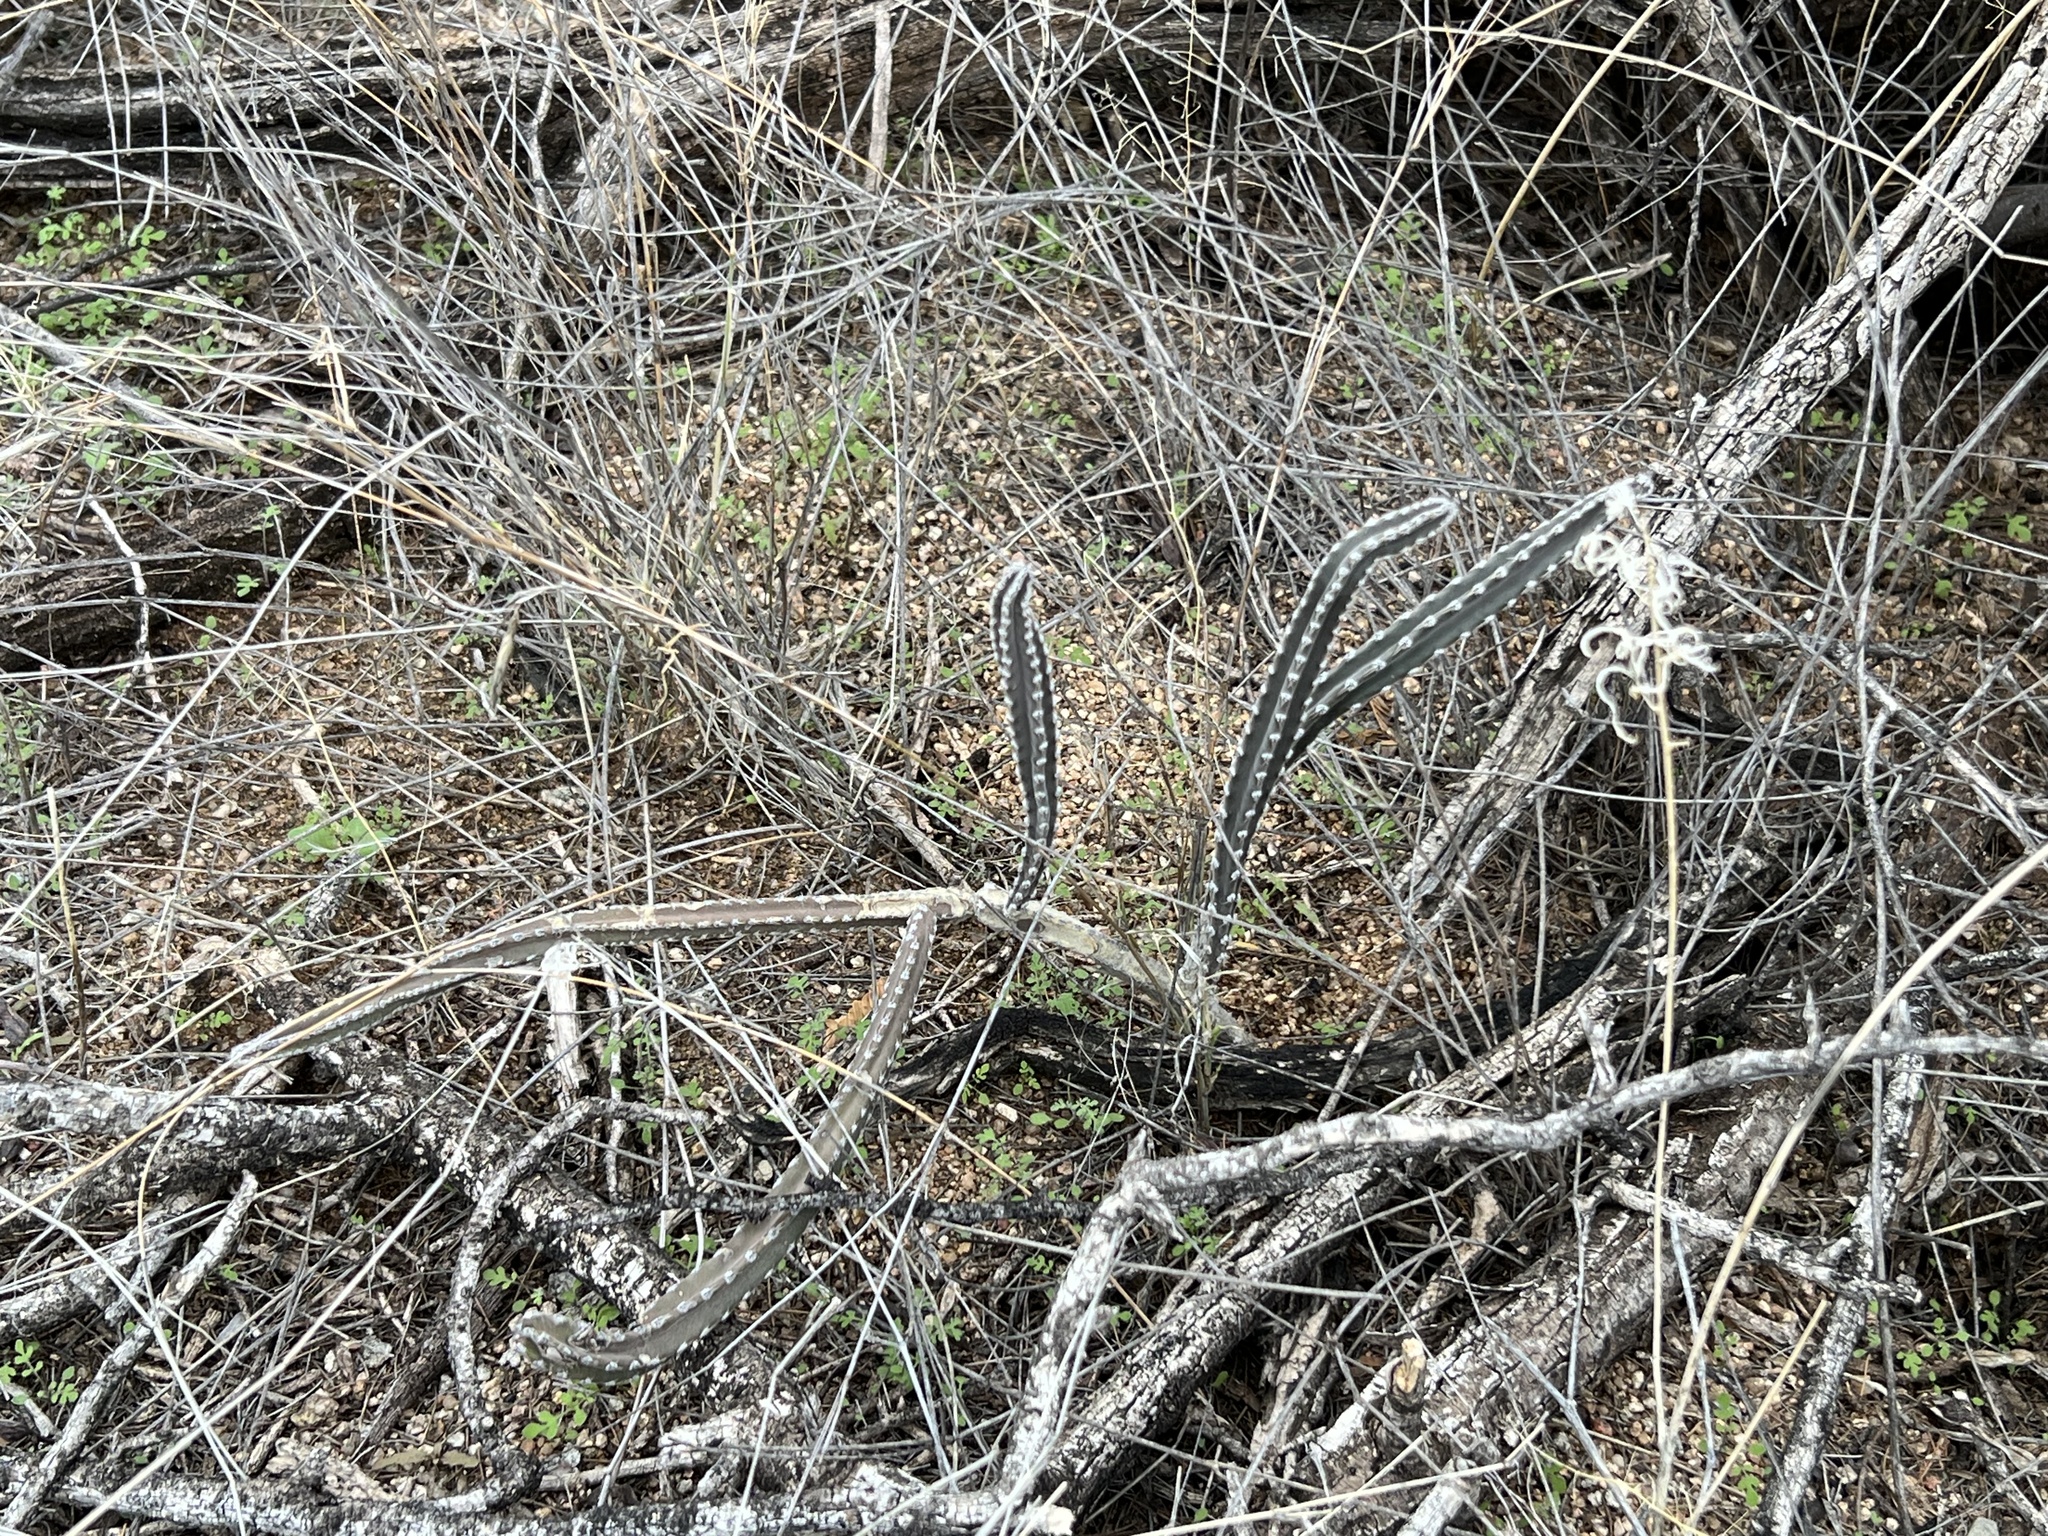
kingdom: Plantae
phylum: Tracheophyta
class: Magnoliopsida
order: Caryophyllales
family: Cactaceae
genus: Peniocereus
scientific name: Peniocereus greggii
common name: Desert night-blooming cereus
